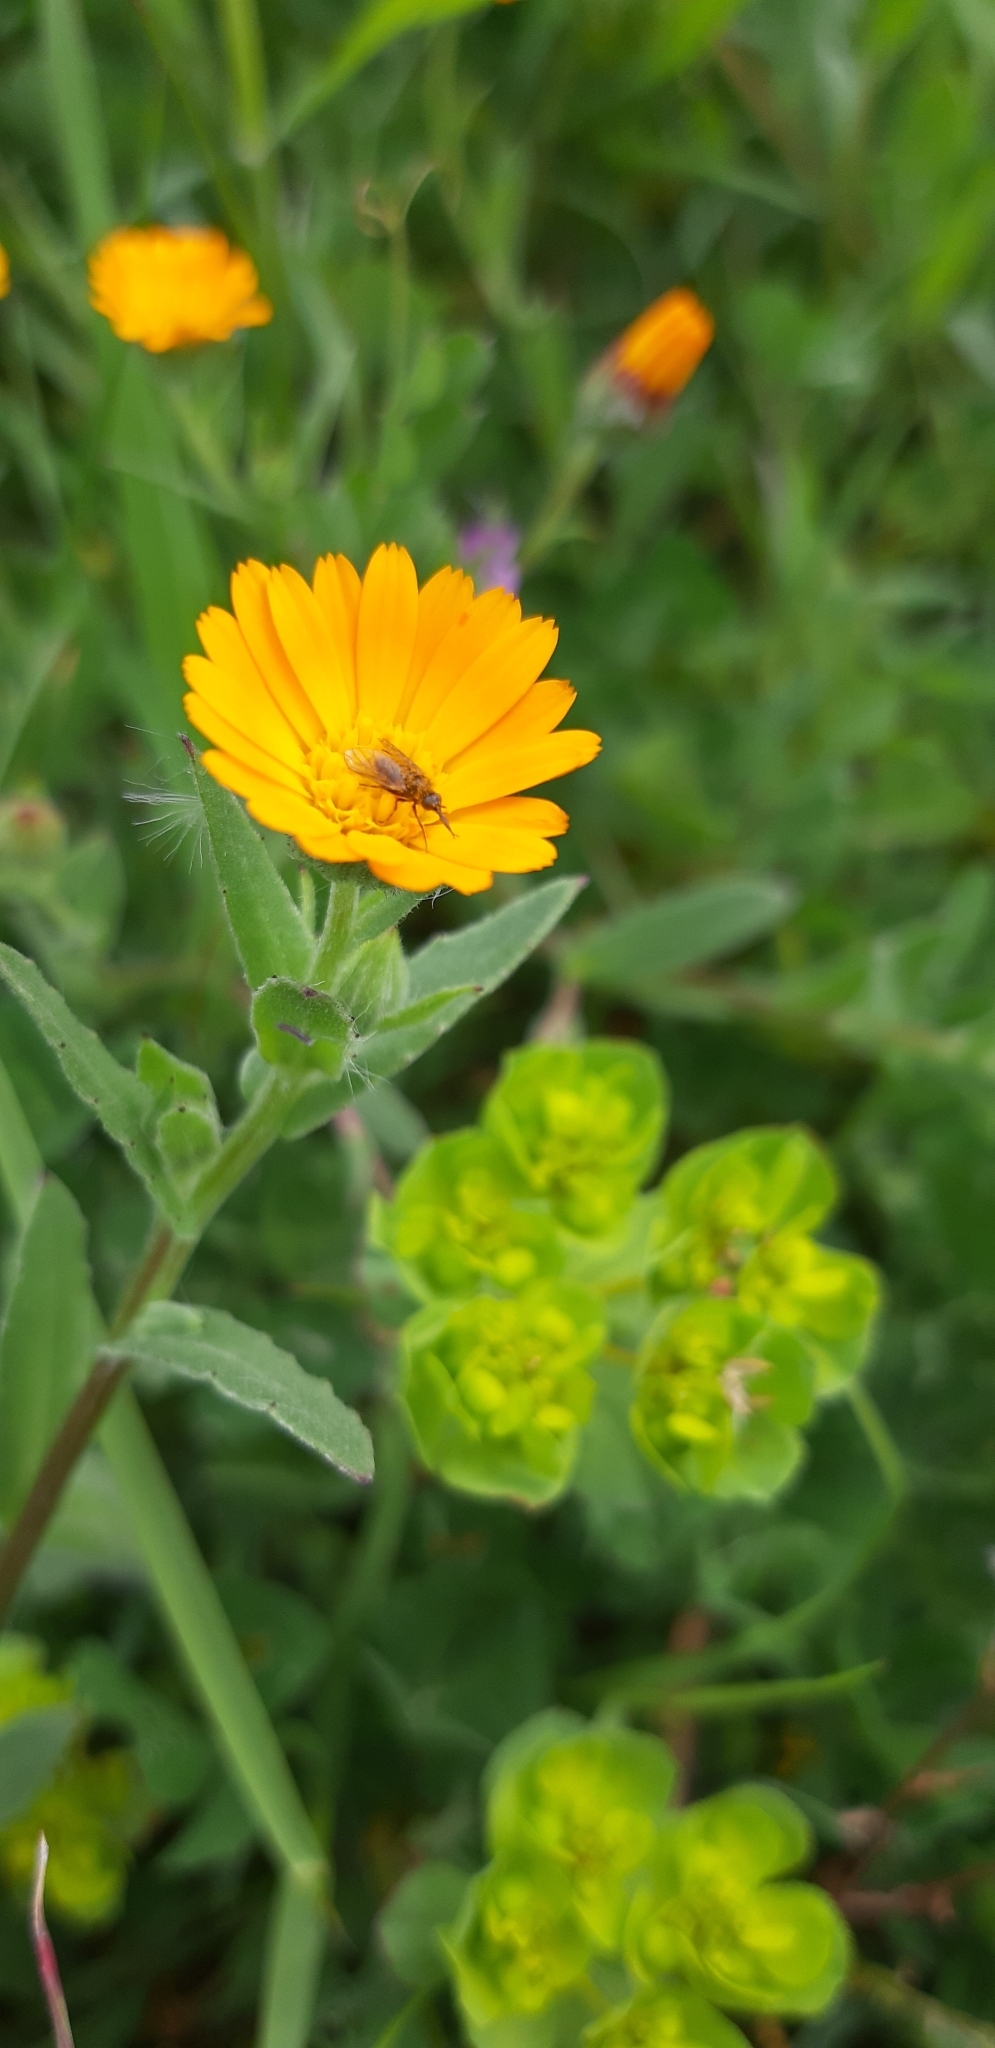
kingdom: Plantae
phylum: Tracheophyta
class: Magnoliopsida
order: Asterales
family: Asteraceae
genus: Calendula
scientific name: Calendula arvensis
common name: Field marigold
